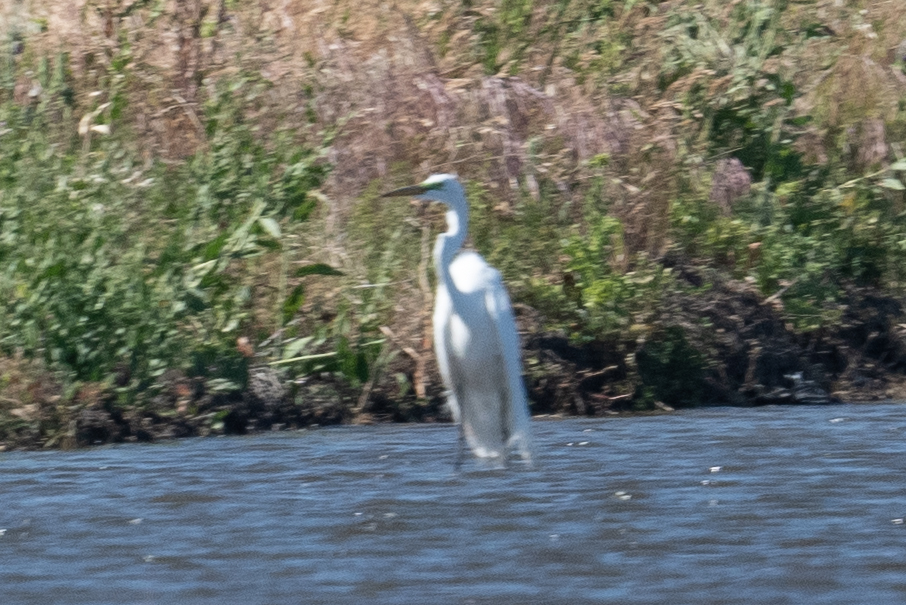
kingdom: Animalia
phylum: Chordata
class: Aves
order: Pelecaniformes
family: Ardeidae
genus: Ardea
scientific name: Ardea alba
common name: Great egret
